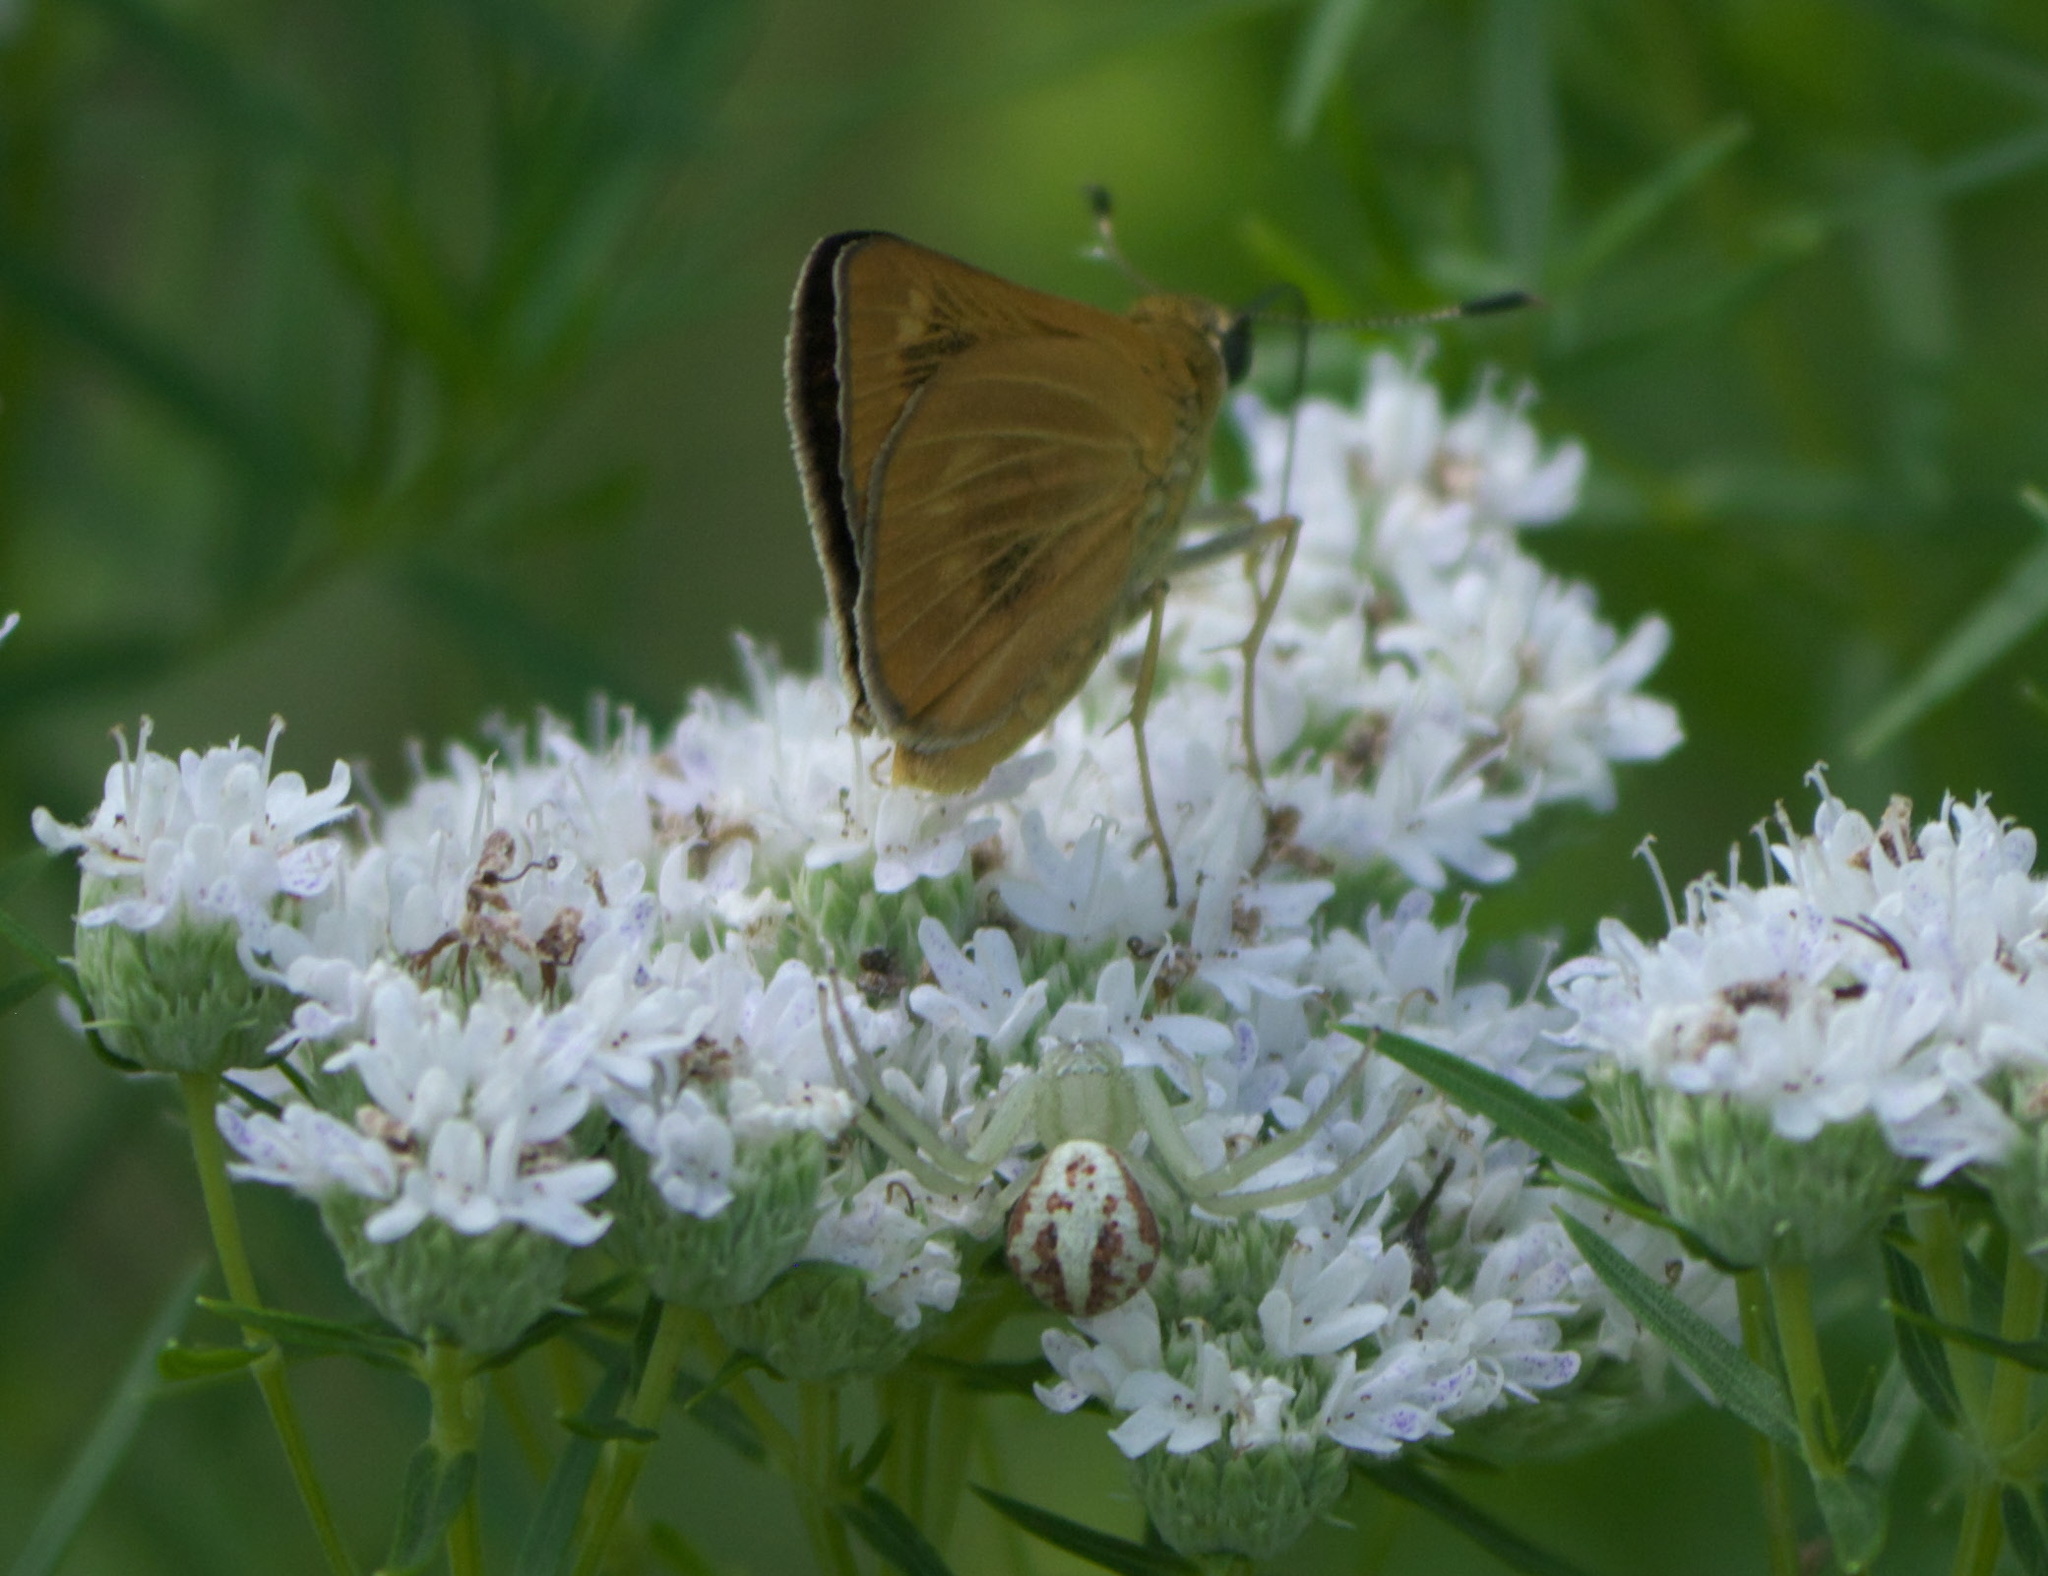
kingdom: Animalia
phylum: Arthropoda
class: Insecta
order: Lepidoptera
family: Hesperiidae
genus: Problema
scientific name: Problema byssus
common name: Byssus skipper
